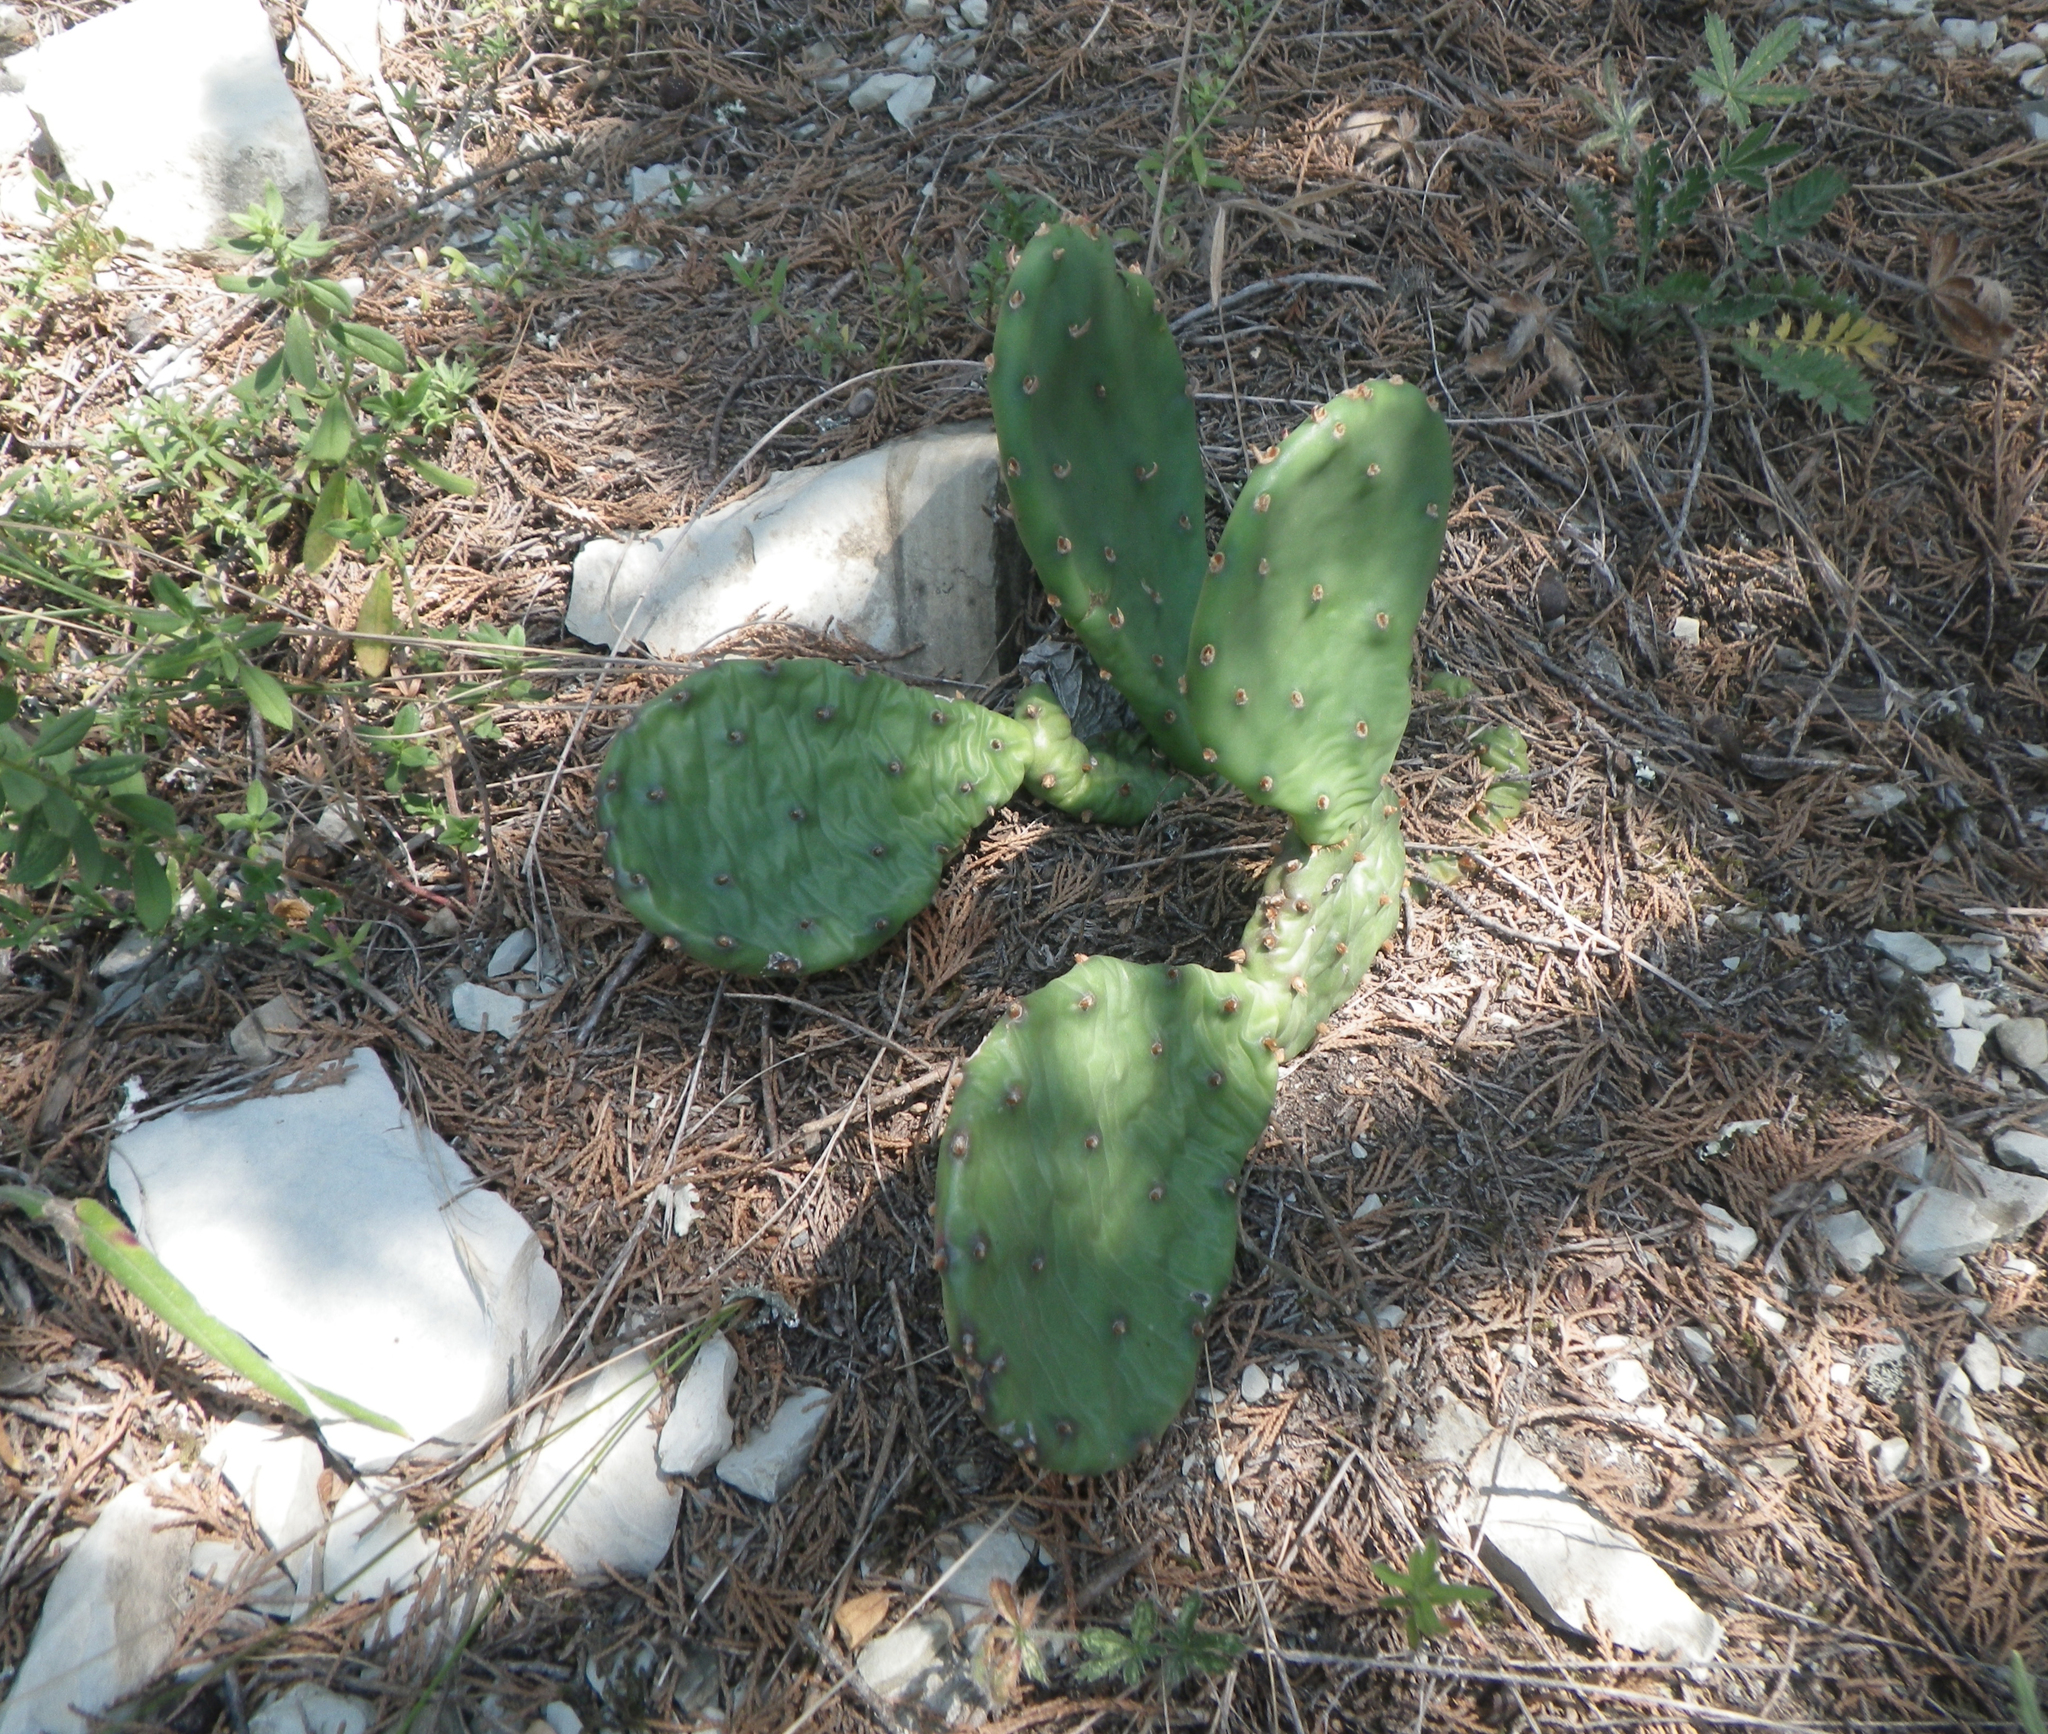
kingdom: Plantae
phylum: Tracheophyta
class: Magnoliopsida
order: Caryophyllales
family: Cactaceae
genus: Opuntia
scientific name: Opuntia humifusa
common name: Eastern prickly-pear
